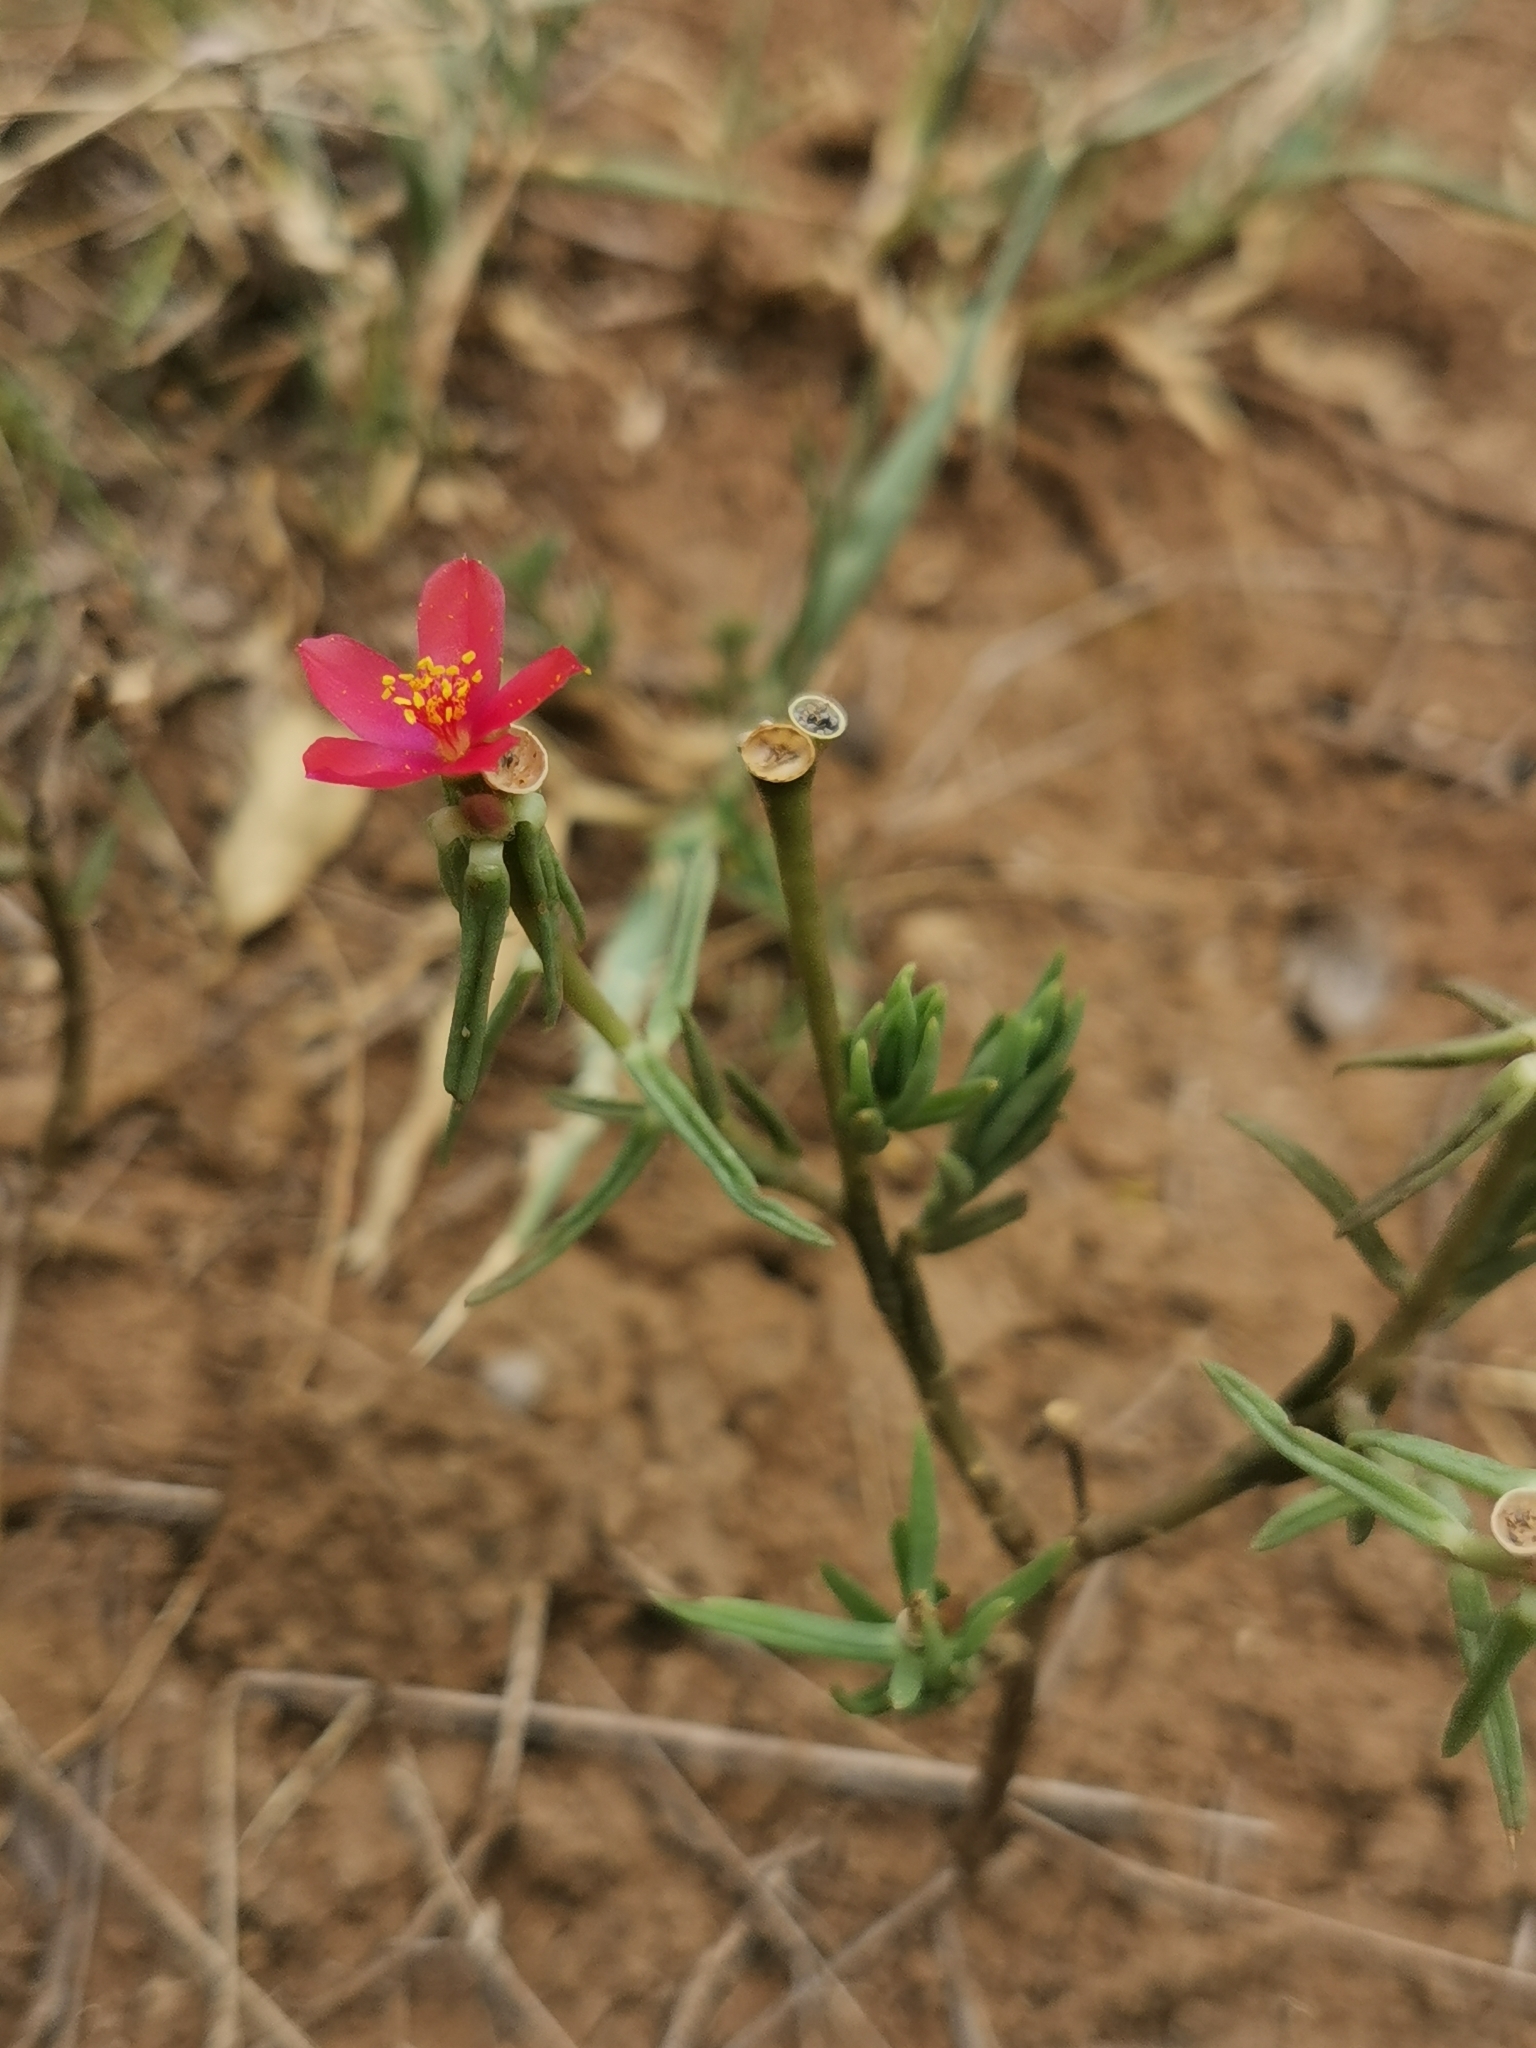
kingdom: Plantae
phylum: Tracheophyta
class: Magnoliopsida
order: Caryophyllales
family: Portulacaceae
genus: Portulaca
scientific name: Portulaca kermesina
